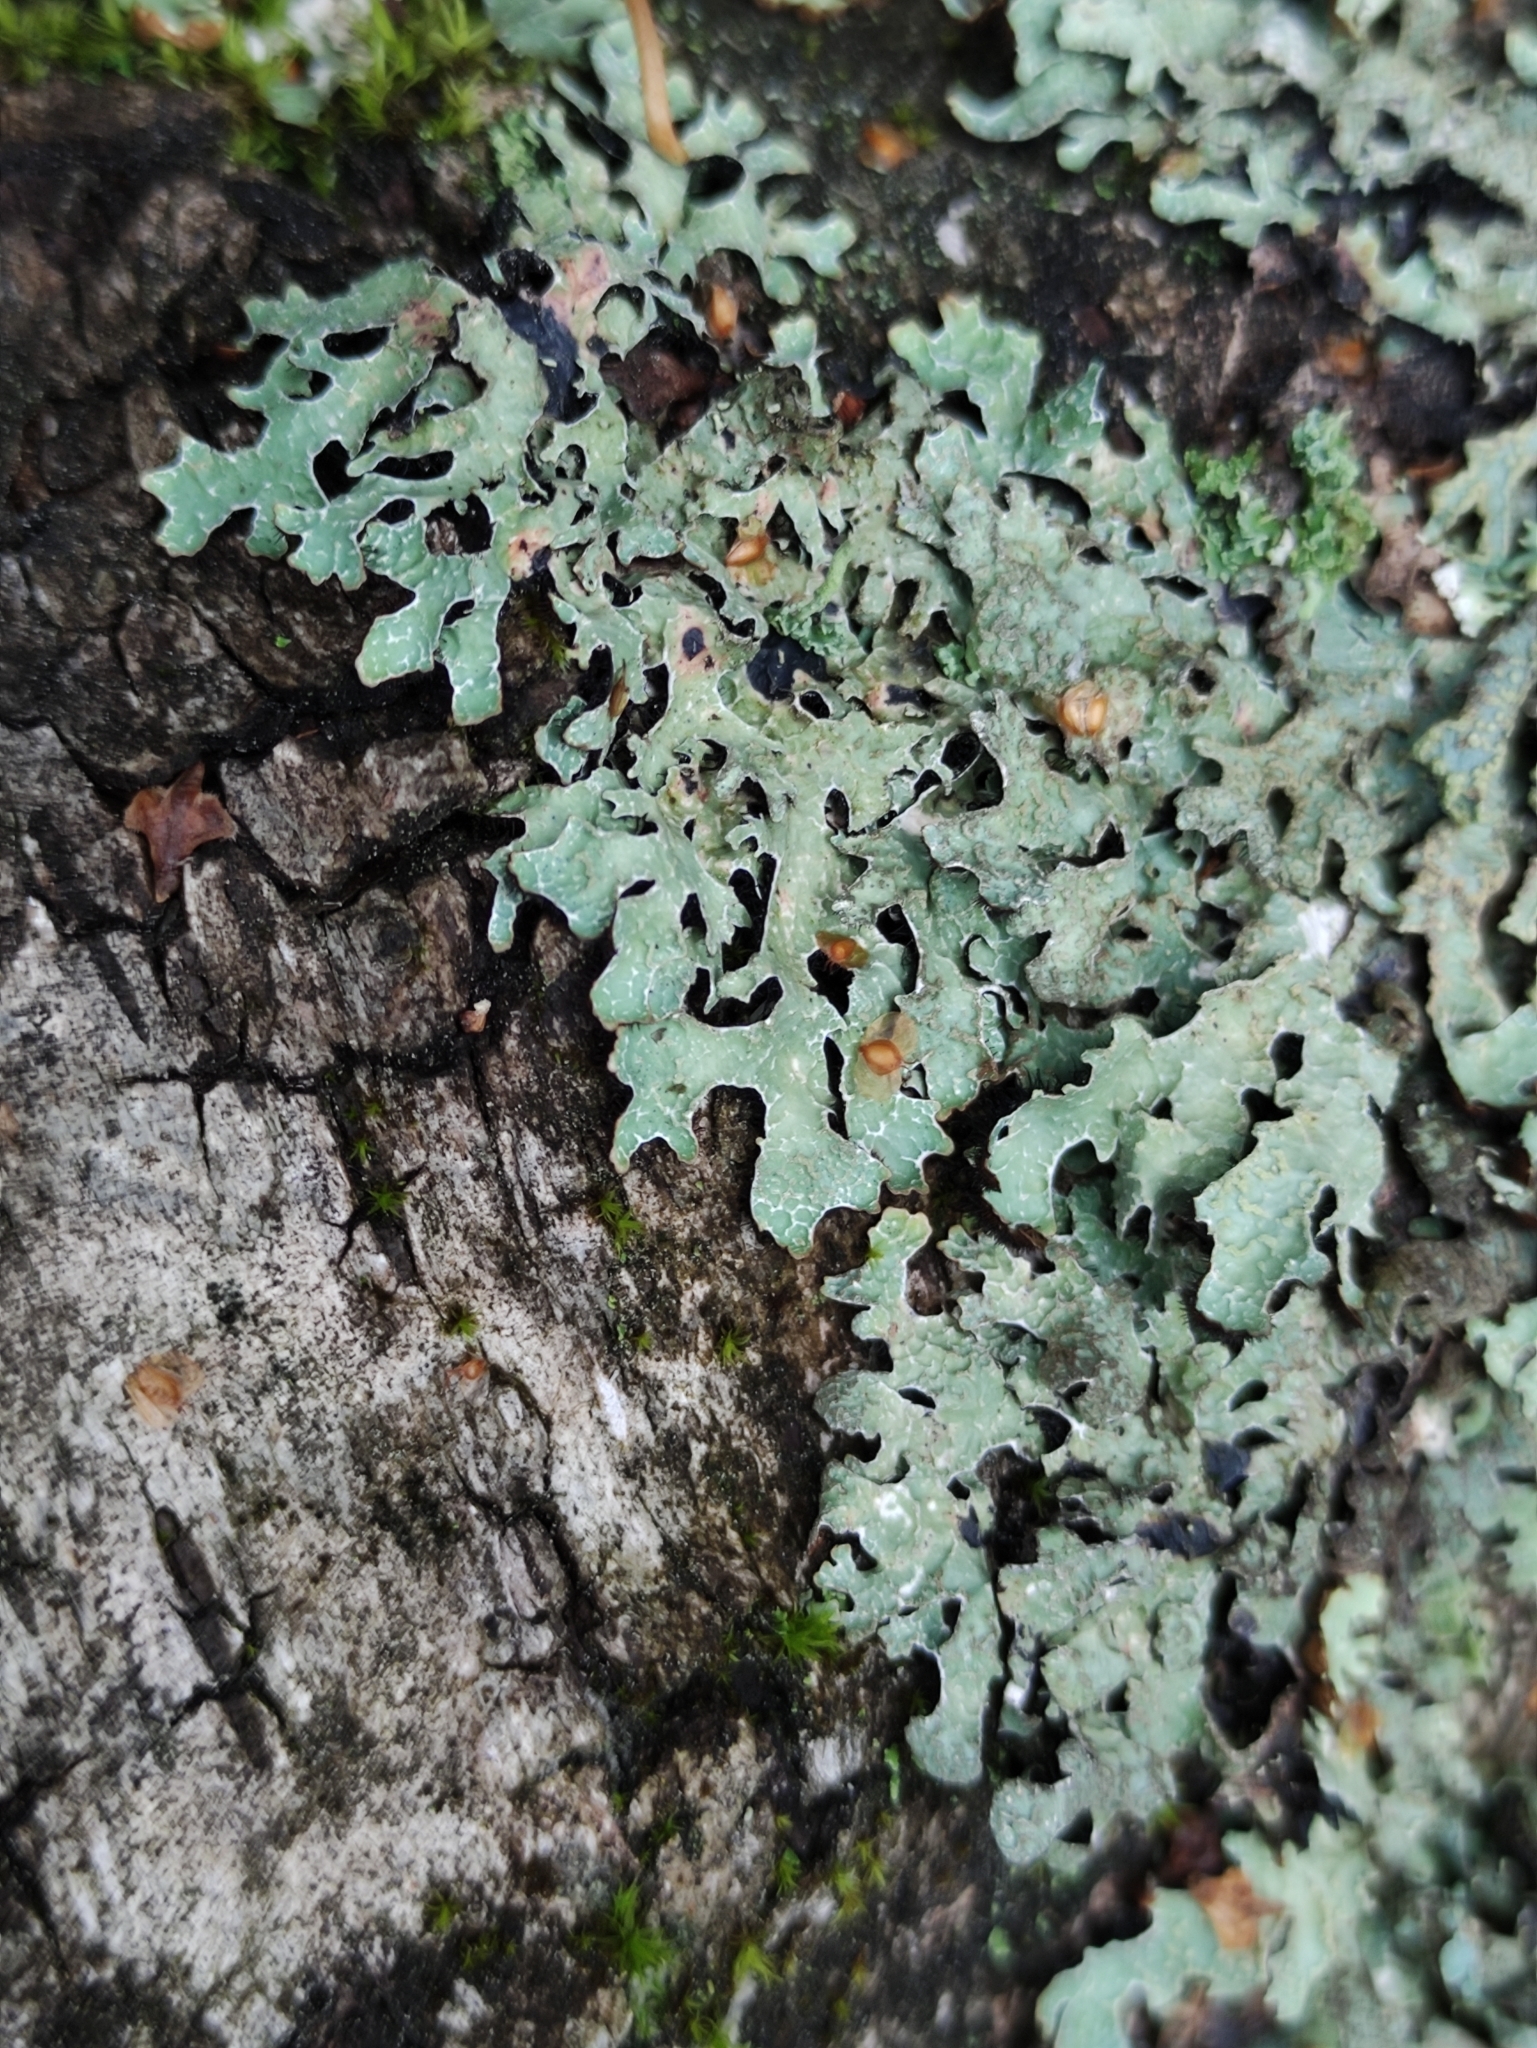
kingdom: Fungi
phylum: Ascomycota
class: Lecanoromycetes
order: Lecanorales
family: Parmeliaceae
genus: Parmelia
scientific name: Parmelia sulcata
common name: Netted shield lichen
